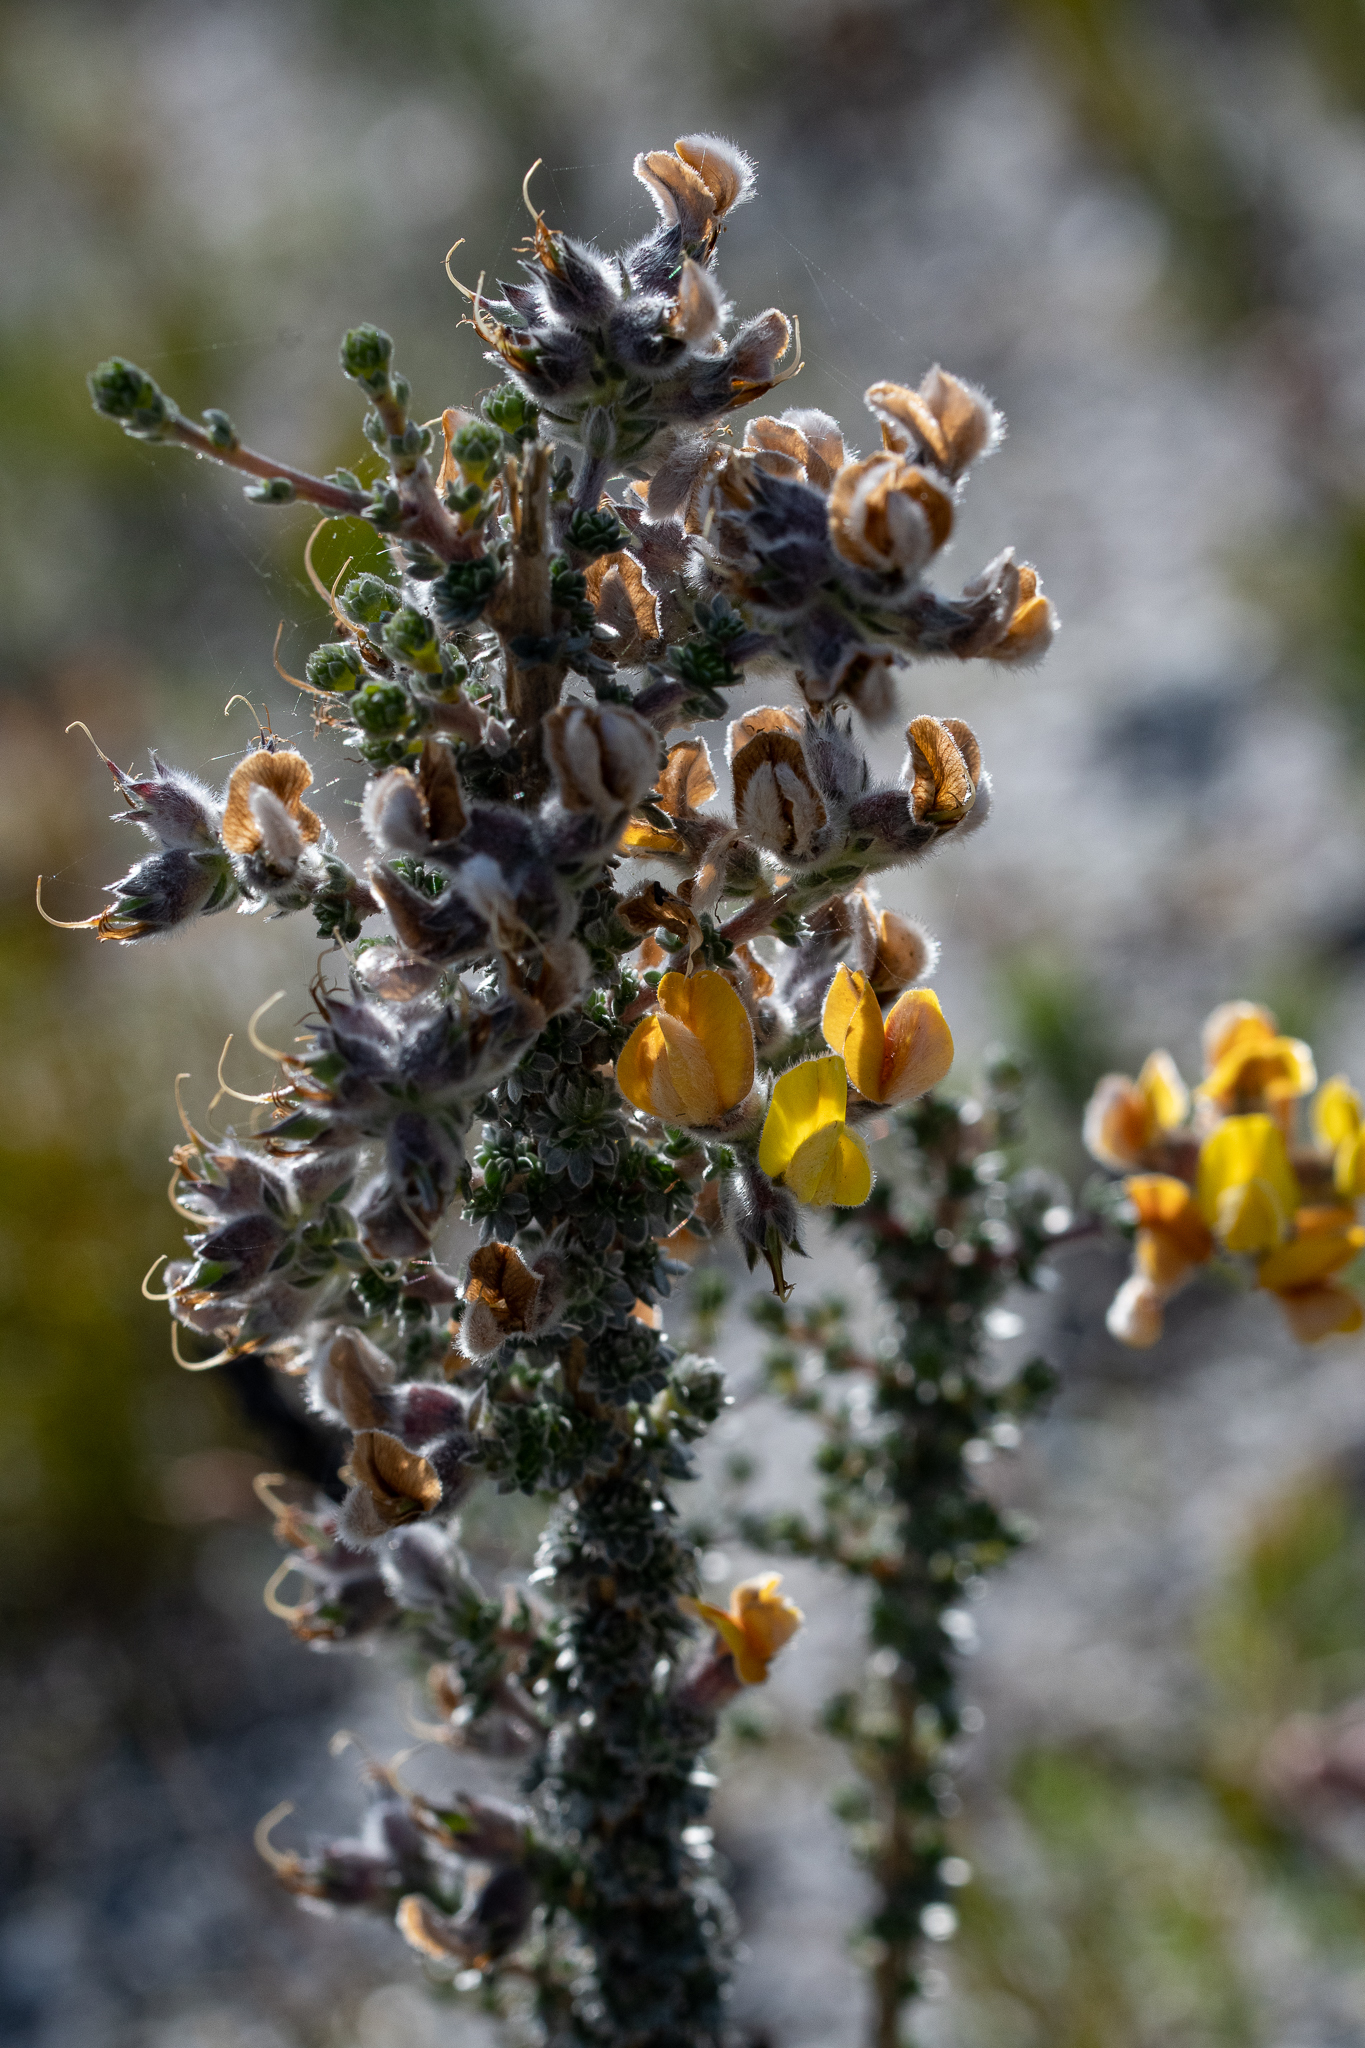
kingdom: Plantae
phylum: Tracheophyta
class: Magnoliopsida
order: Fabales
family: Fabaceae
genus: Aspalathus
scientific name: Aspalathus ramulosa
